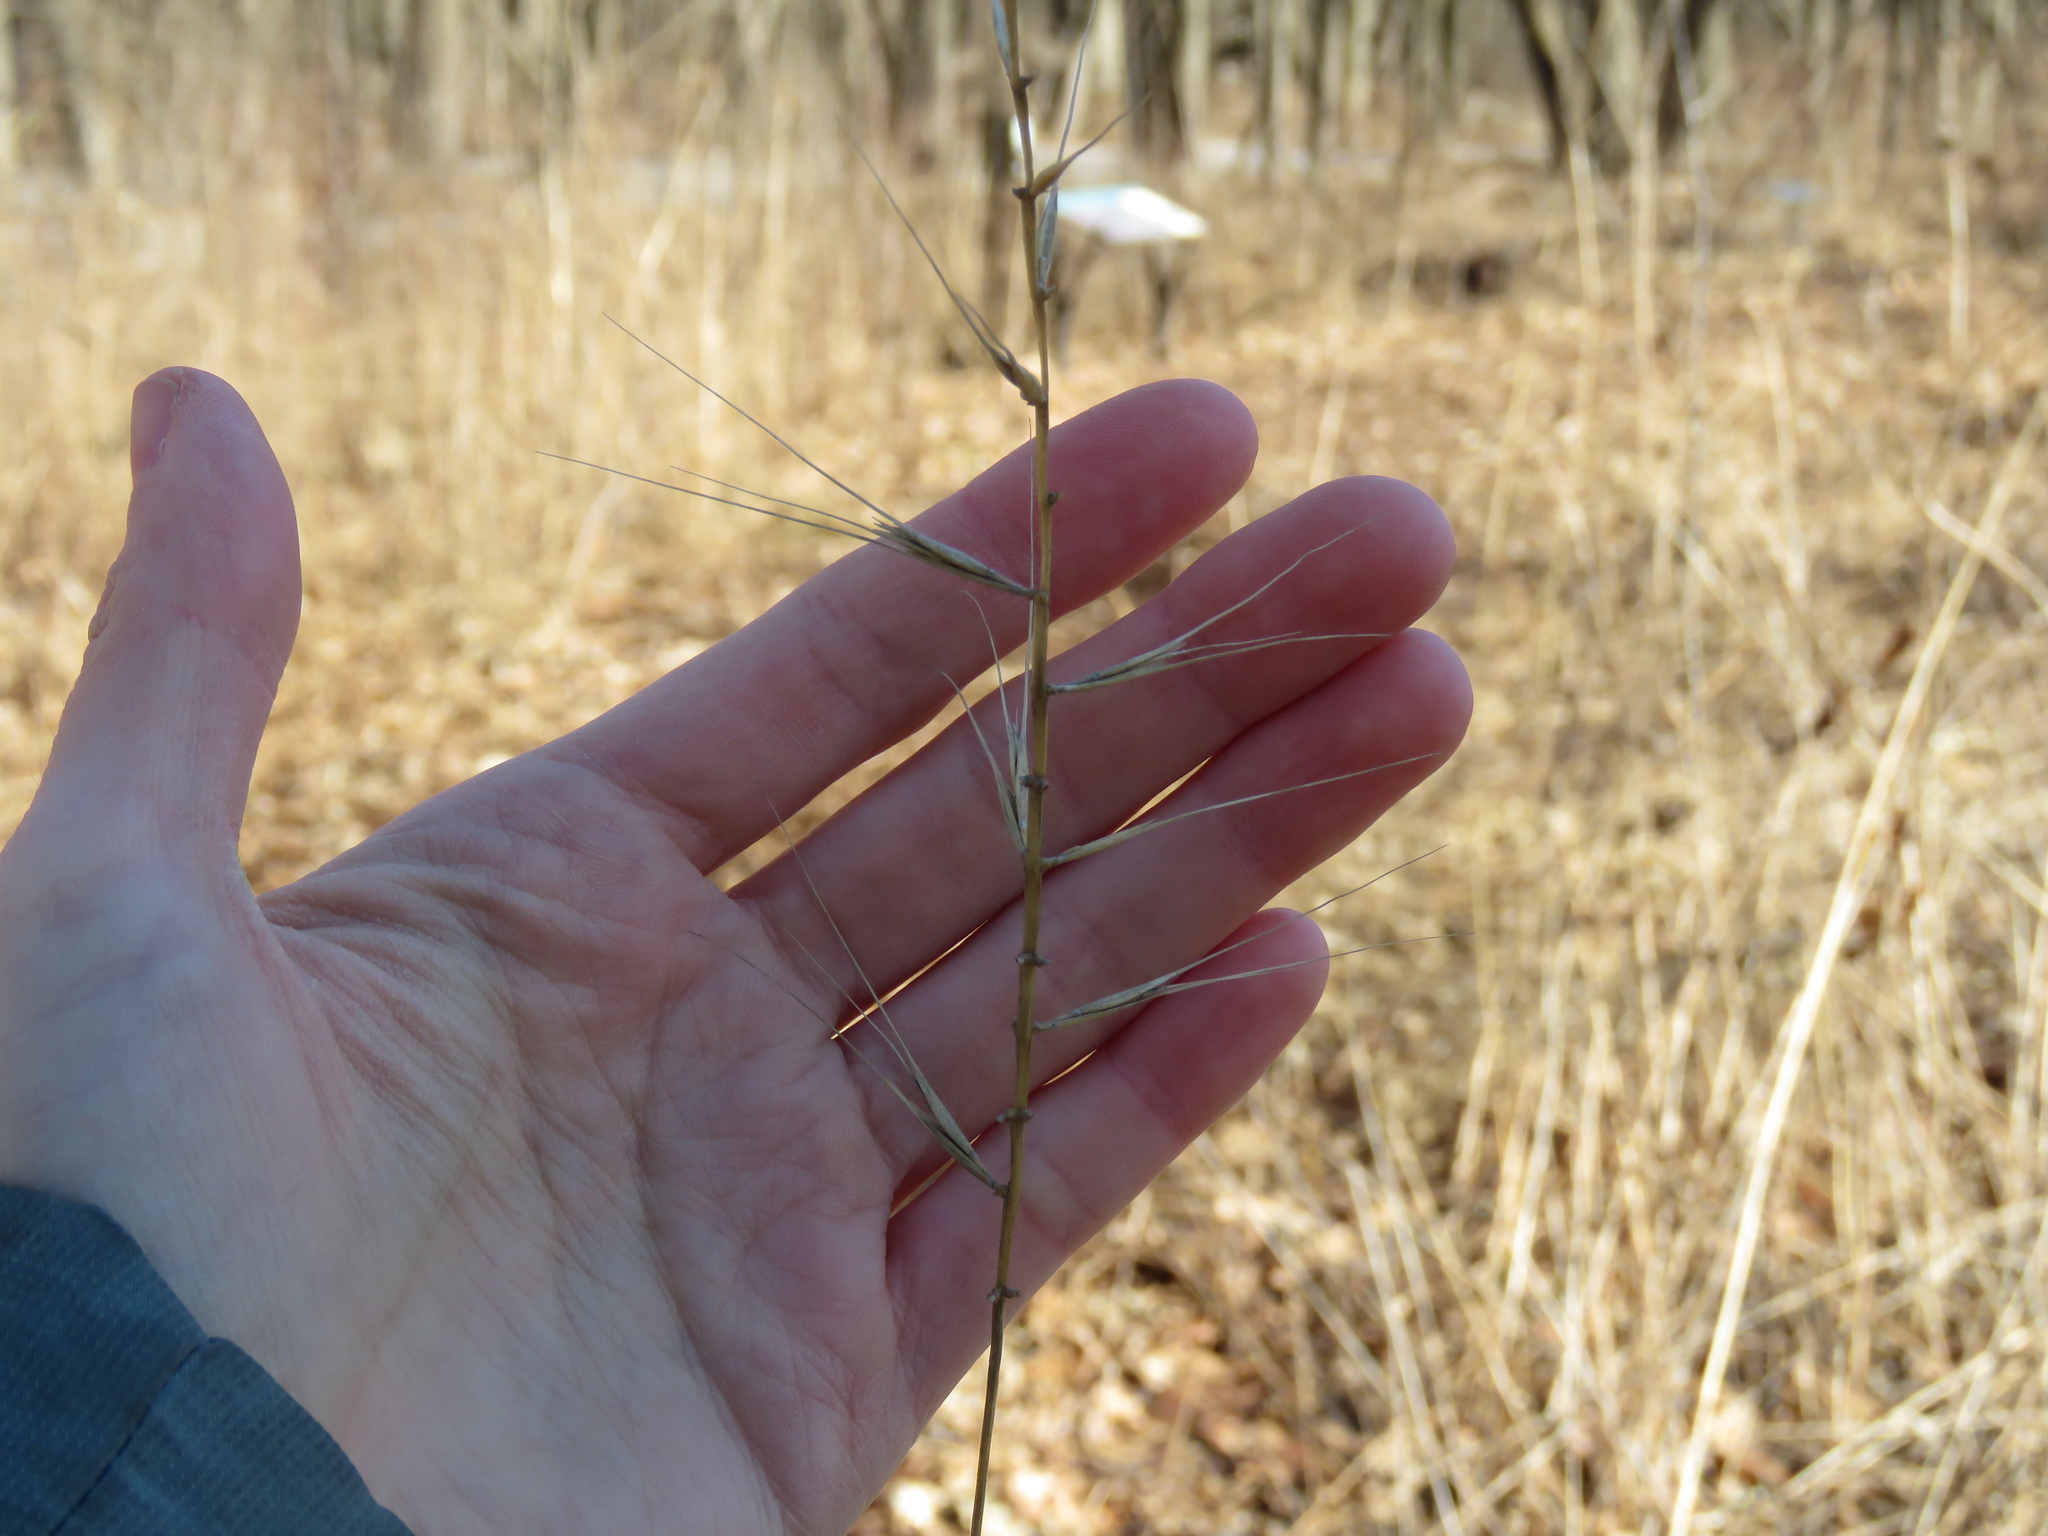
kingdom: Plantae
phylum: Tracheophyta
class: Liliopsida
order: Poales
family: Poaceae
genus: Elymus
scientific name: Elymus hystrix
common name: Bottlebrush grass
